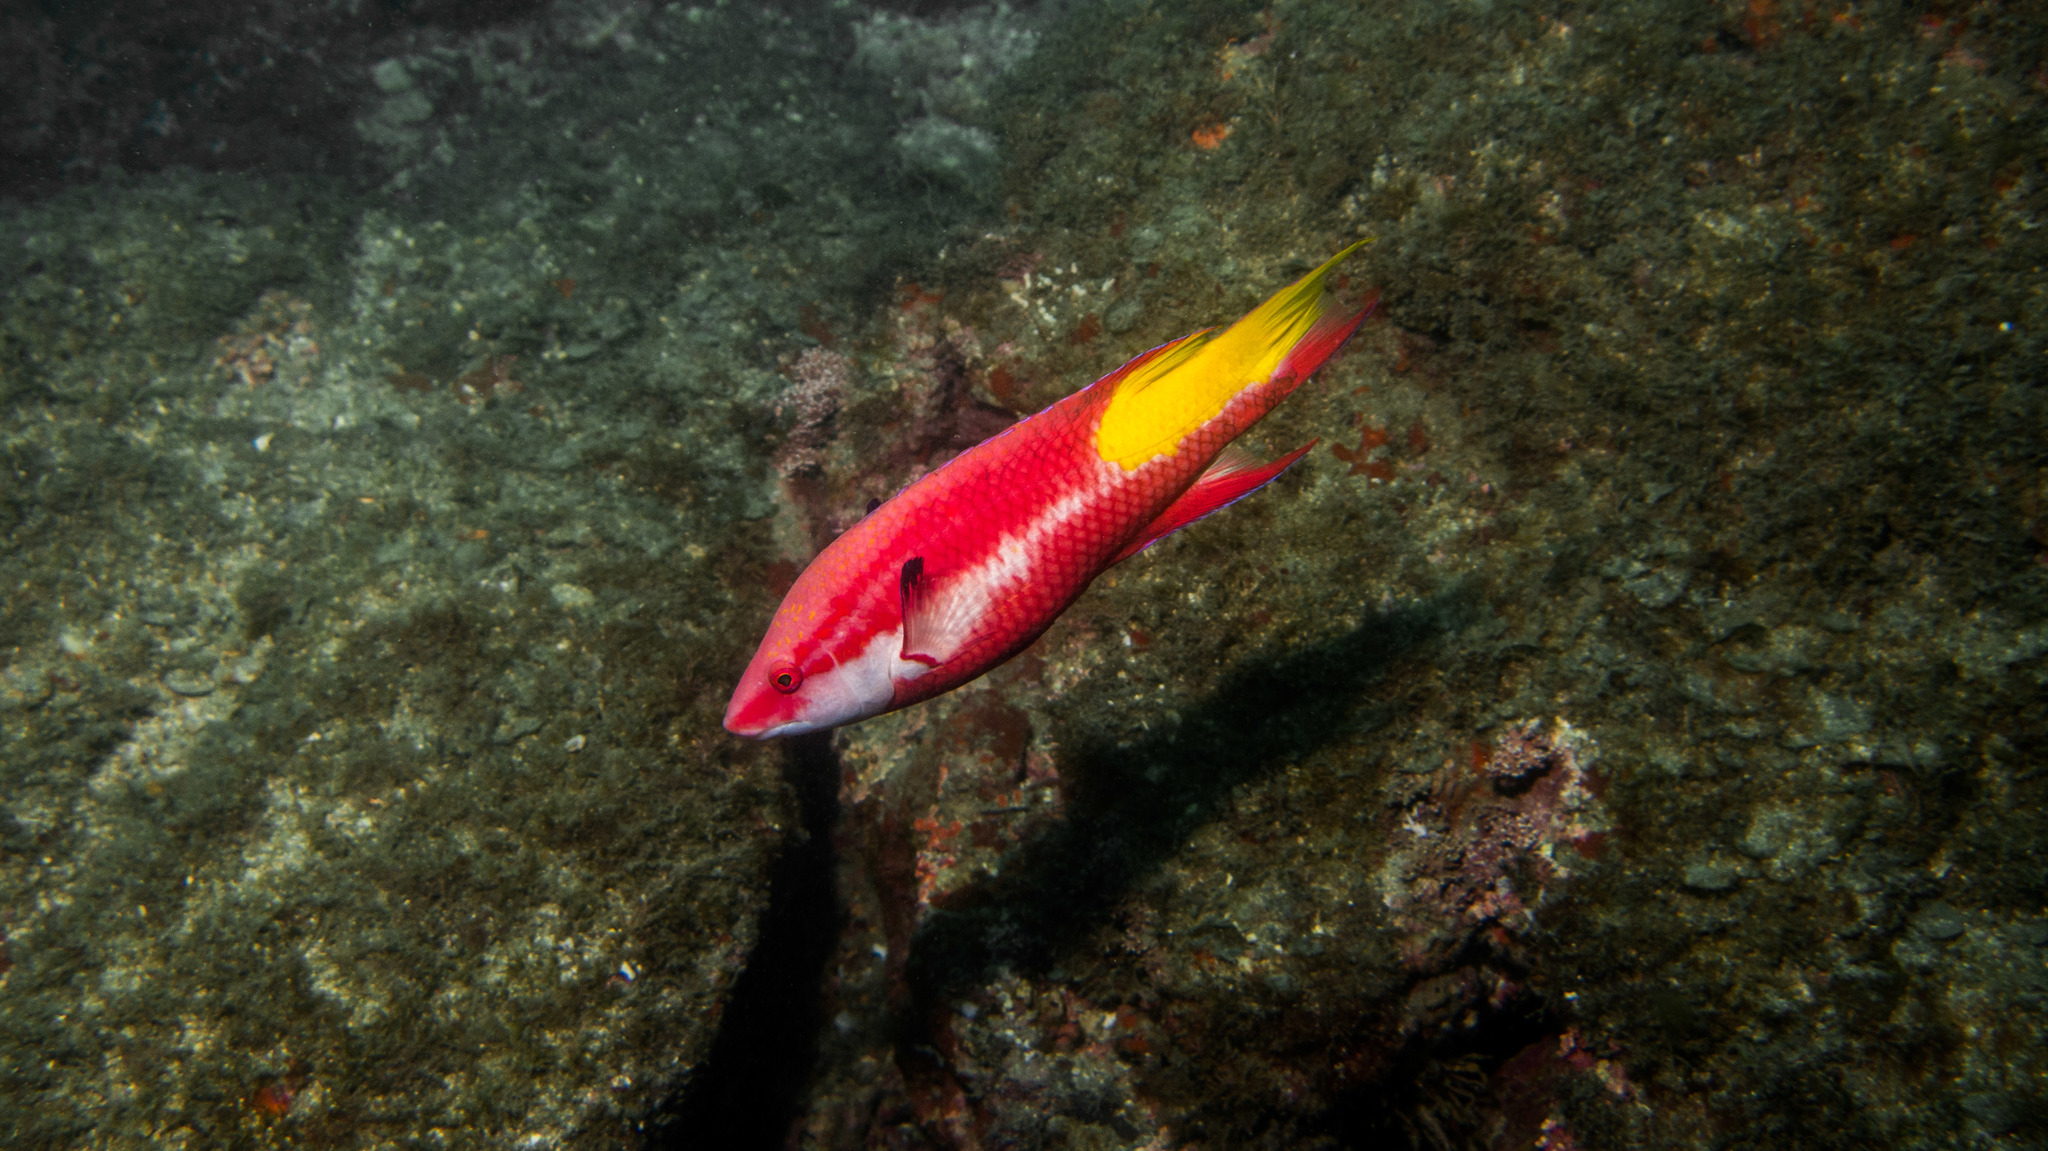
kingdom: Animalia
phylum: Chordata
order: Perciformes
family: Labridae
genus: Bodianus
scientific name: Bodianus pulchellus
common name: Spotfin hogfish
